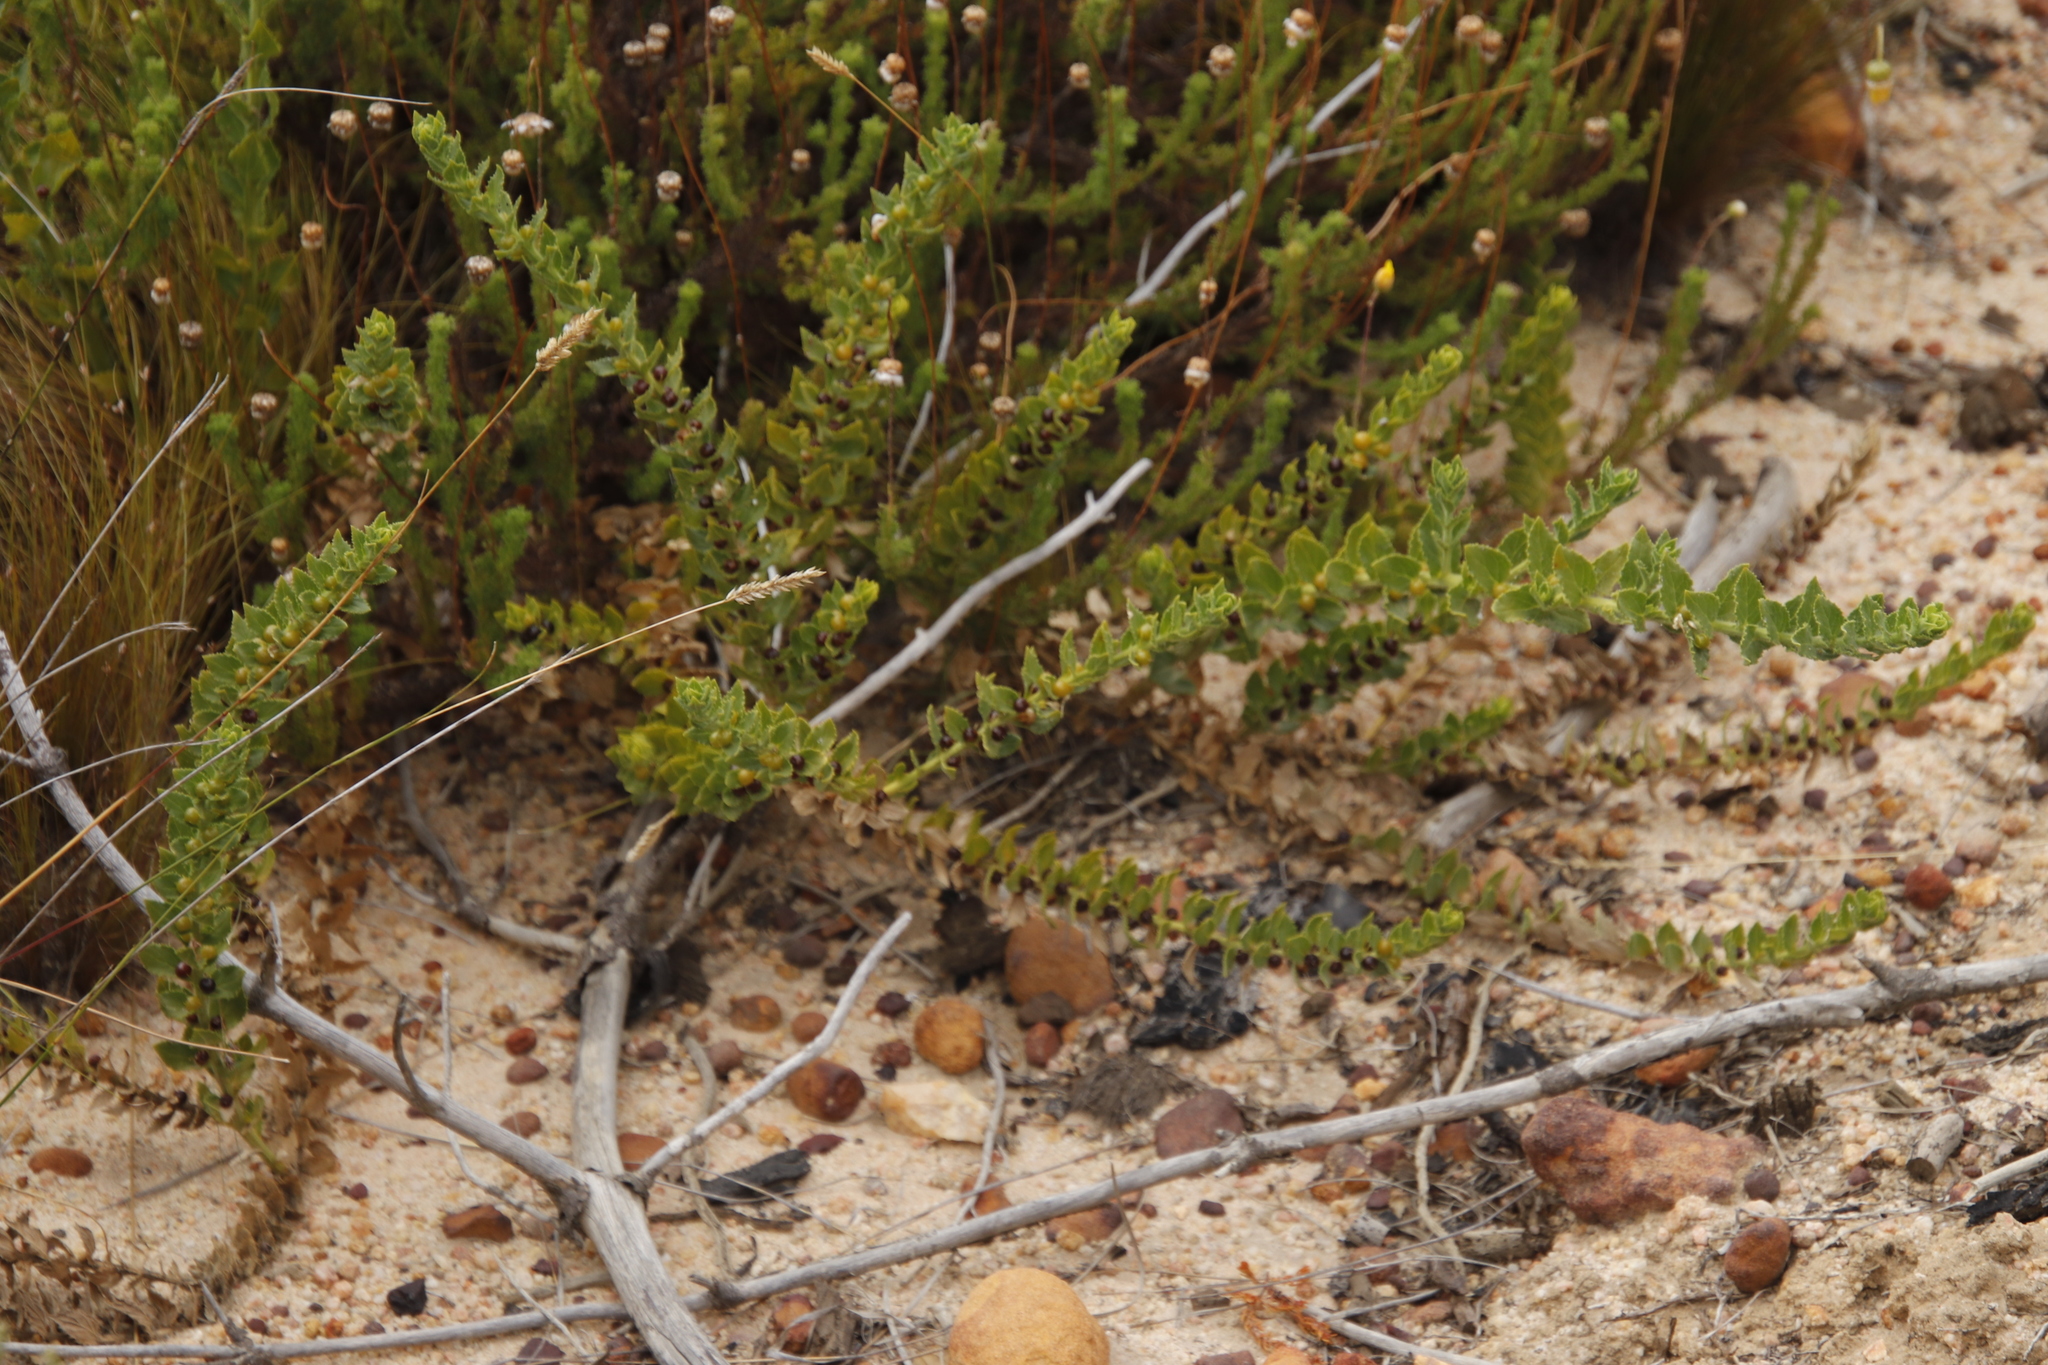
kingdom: Plantae
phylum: Tracheophyta
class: Magnoliopsida
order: Lamiales
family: Scrophulariaceae
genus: Oftia
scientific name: Oftia africana
